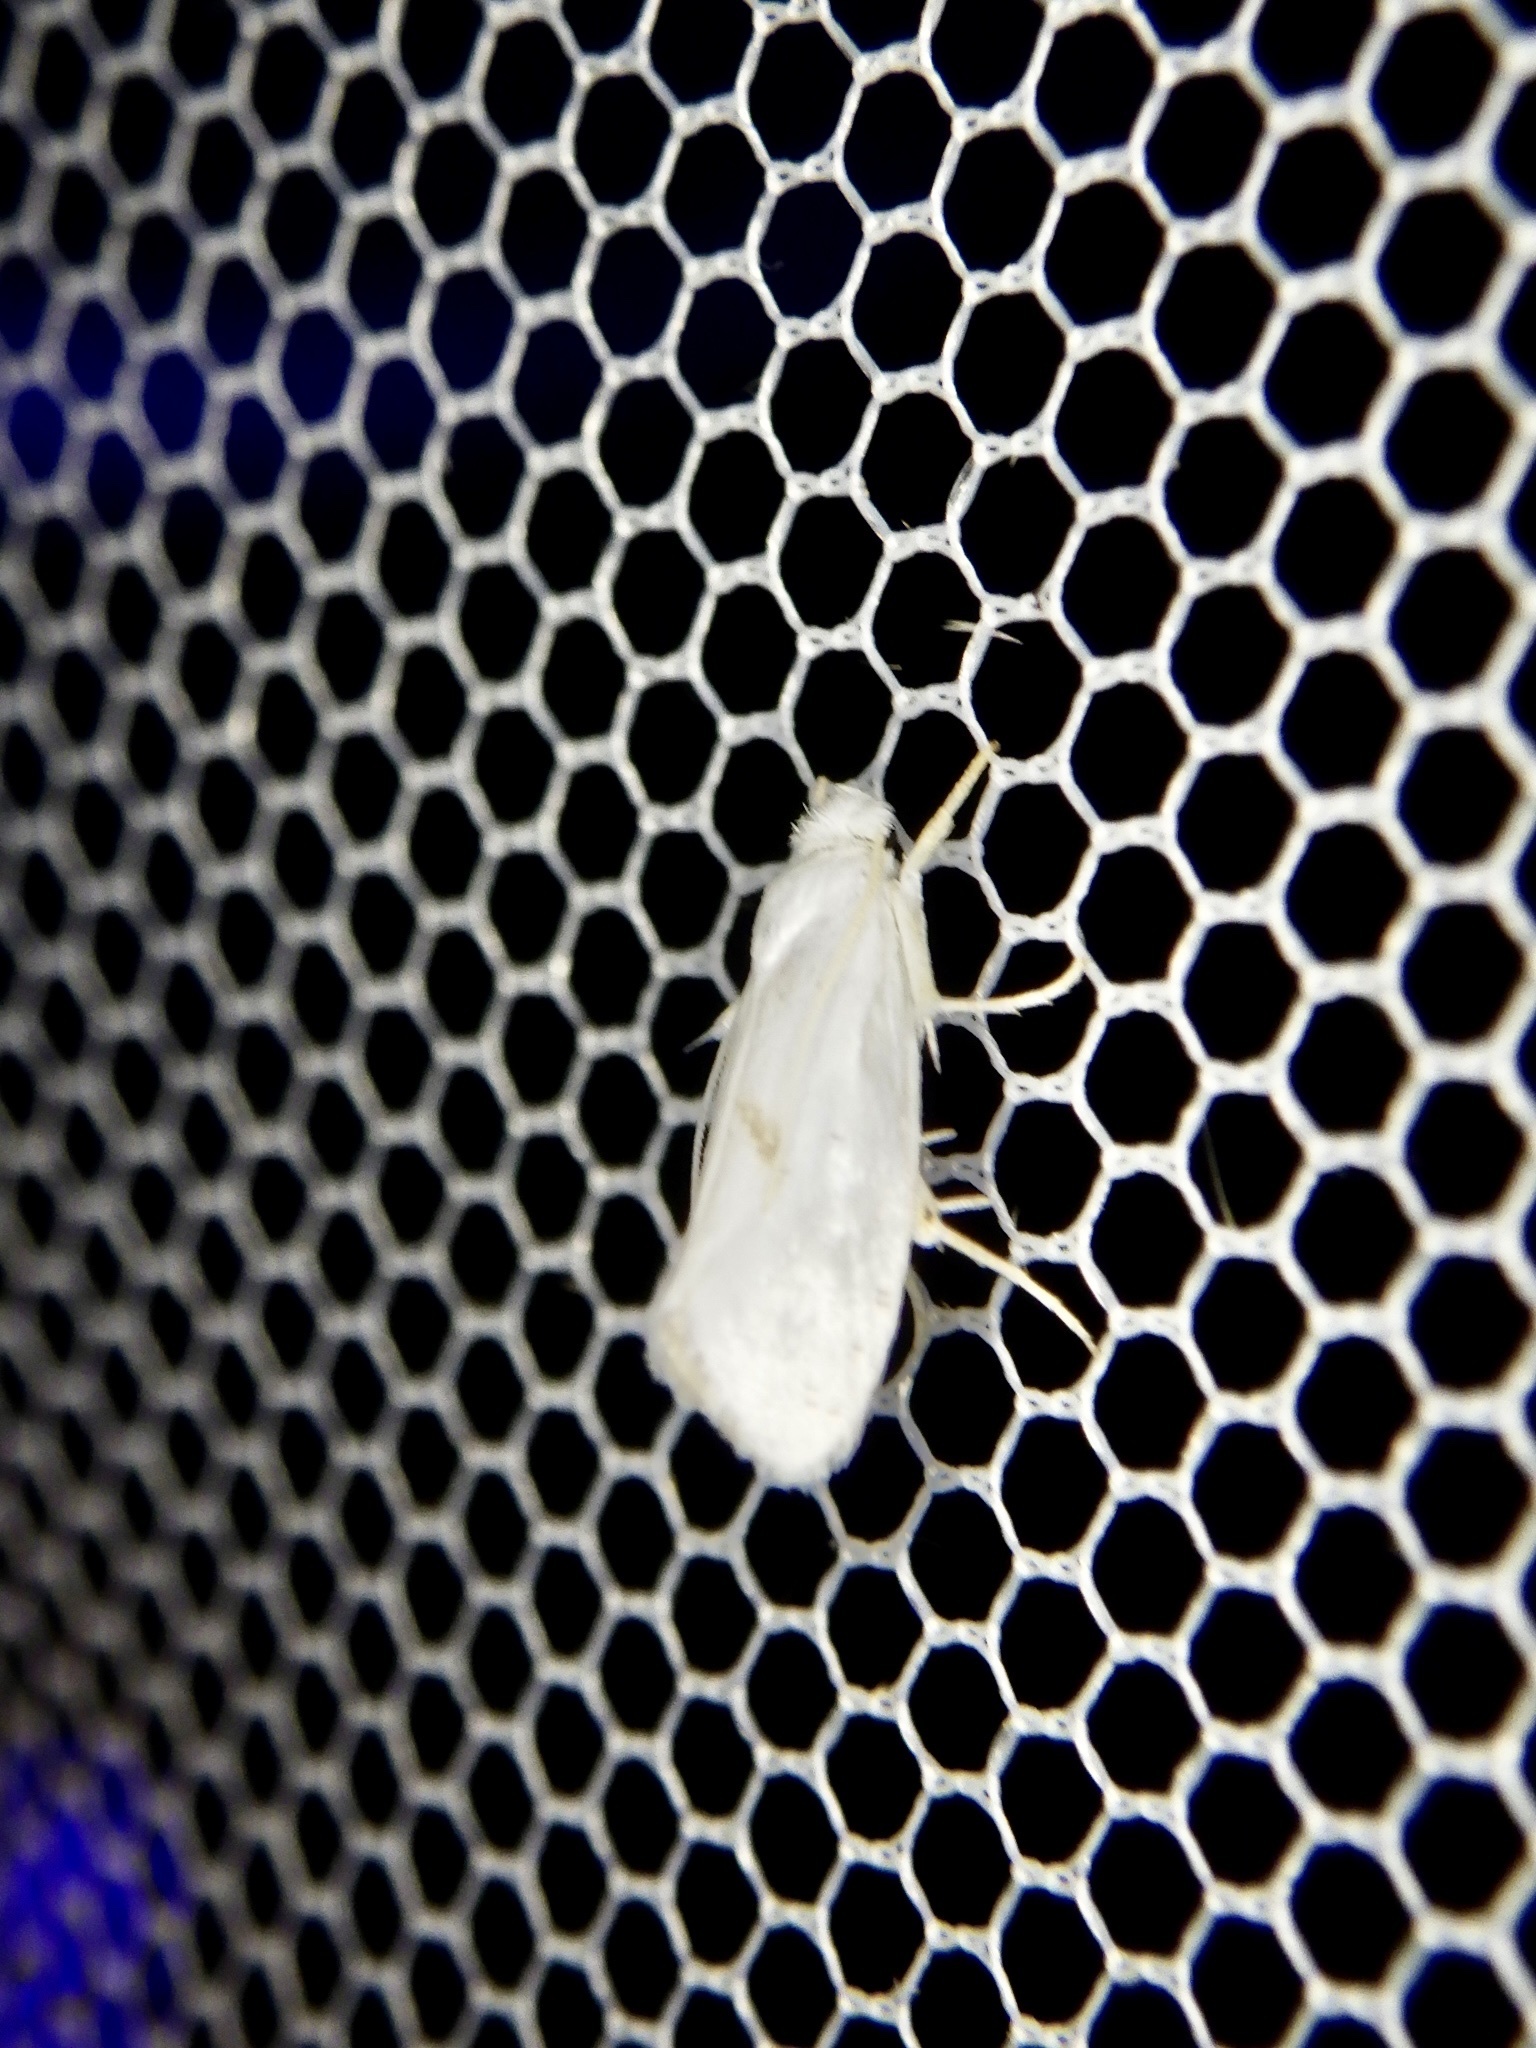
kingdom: Animalia
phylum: Arthropoda
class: Insecta
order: Lepidoptera
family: Yponomeutidae
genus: Thecobathra
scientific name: Thecobathra anas
